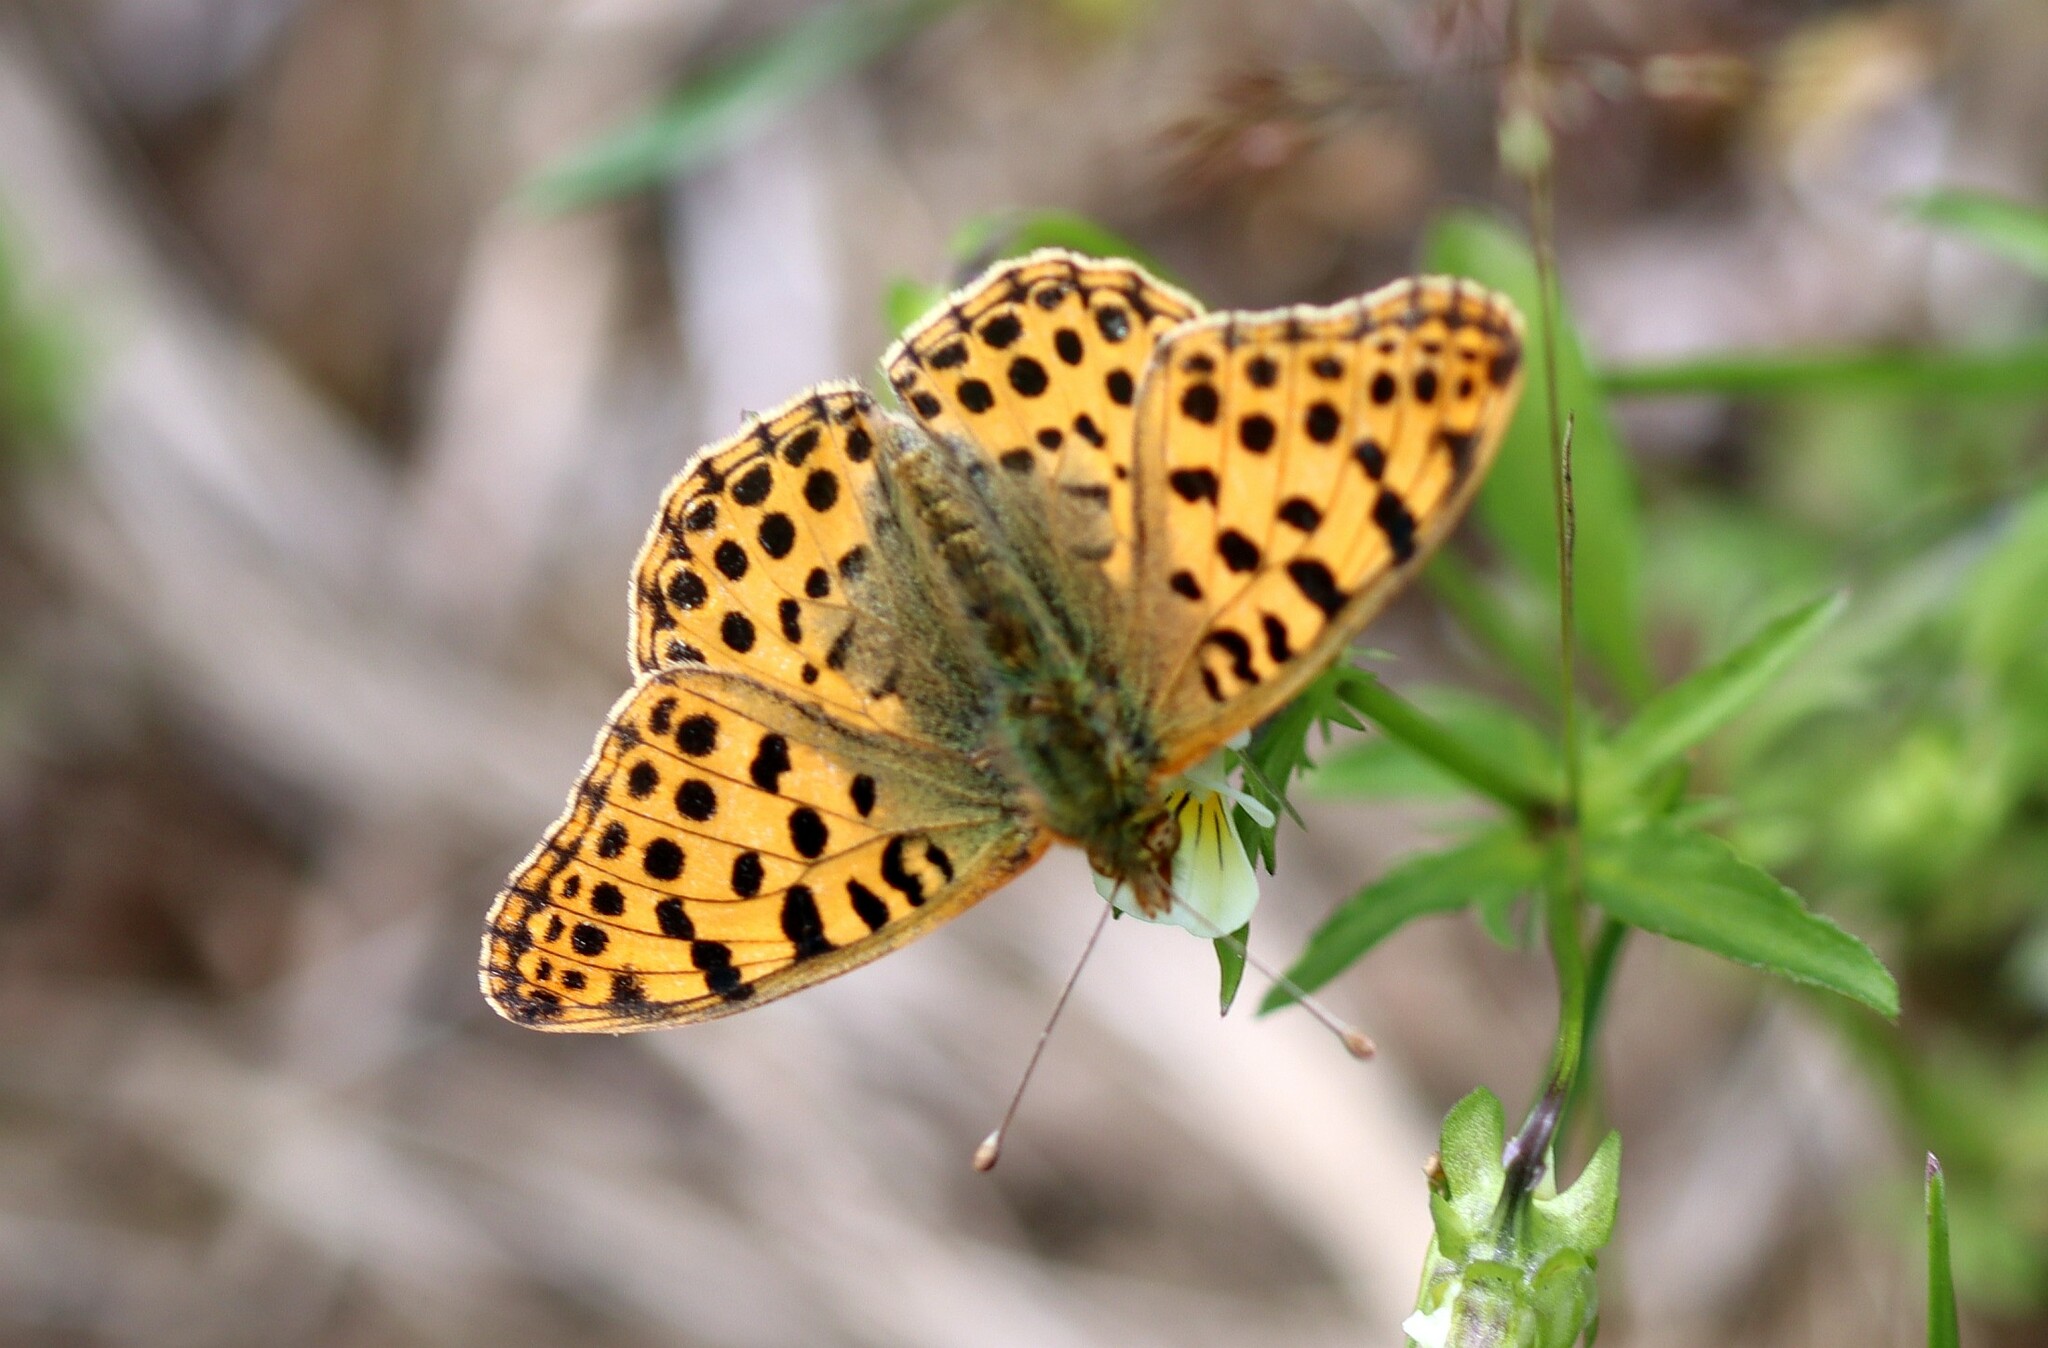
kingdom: Animalia
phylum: Arthropoda
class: Insecta
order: Lepidoptera
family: Nymphalidae
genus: Issoria
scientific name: Issoria lathonia
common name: Queen of spain fritillary
